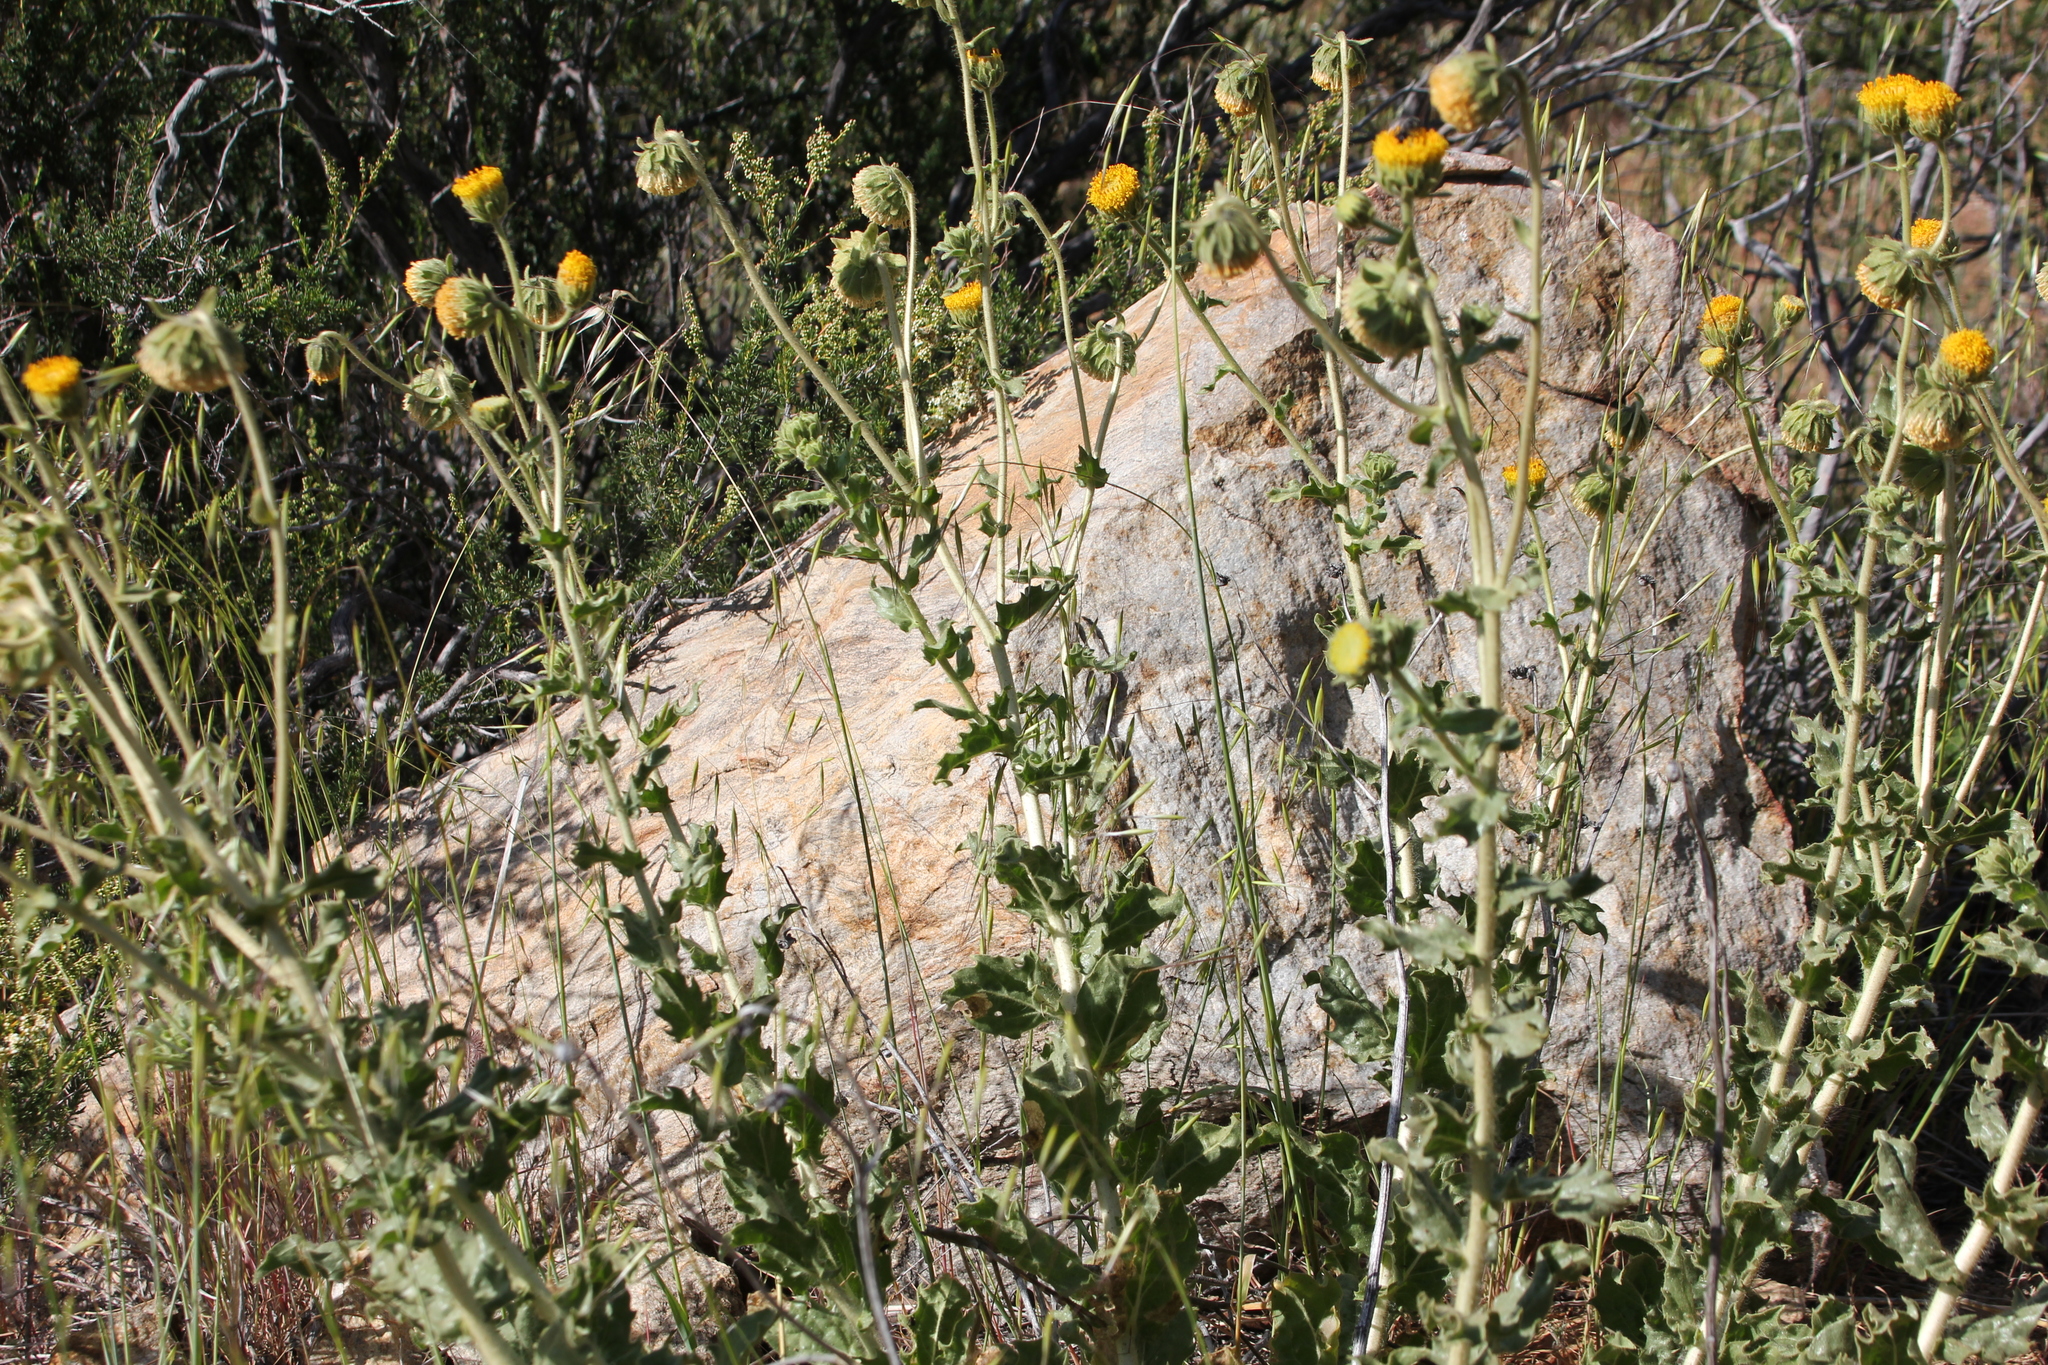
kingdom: Plantae
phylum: Tracheophyta
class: Magnoliopsida
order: Asterales
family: Asteraceae
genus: Geraea
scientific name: Geraea viscida
